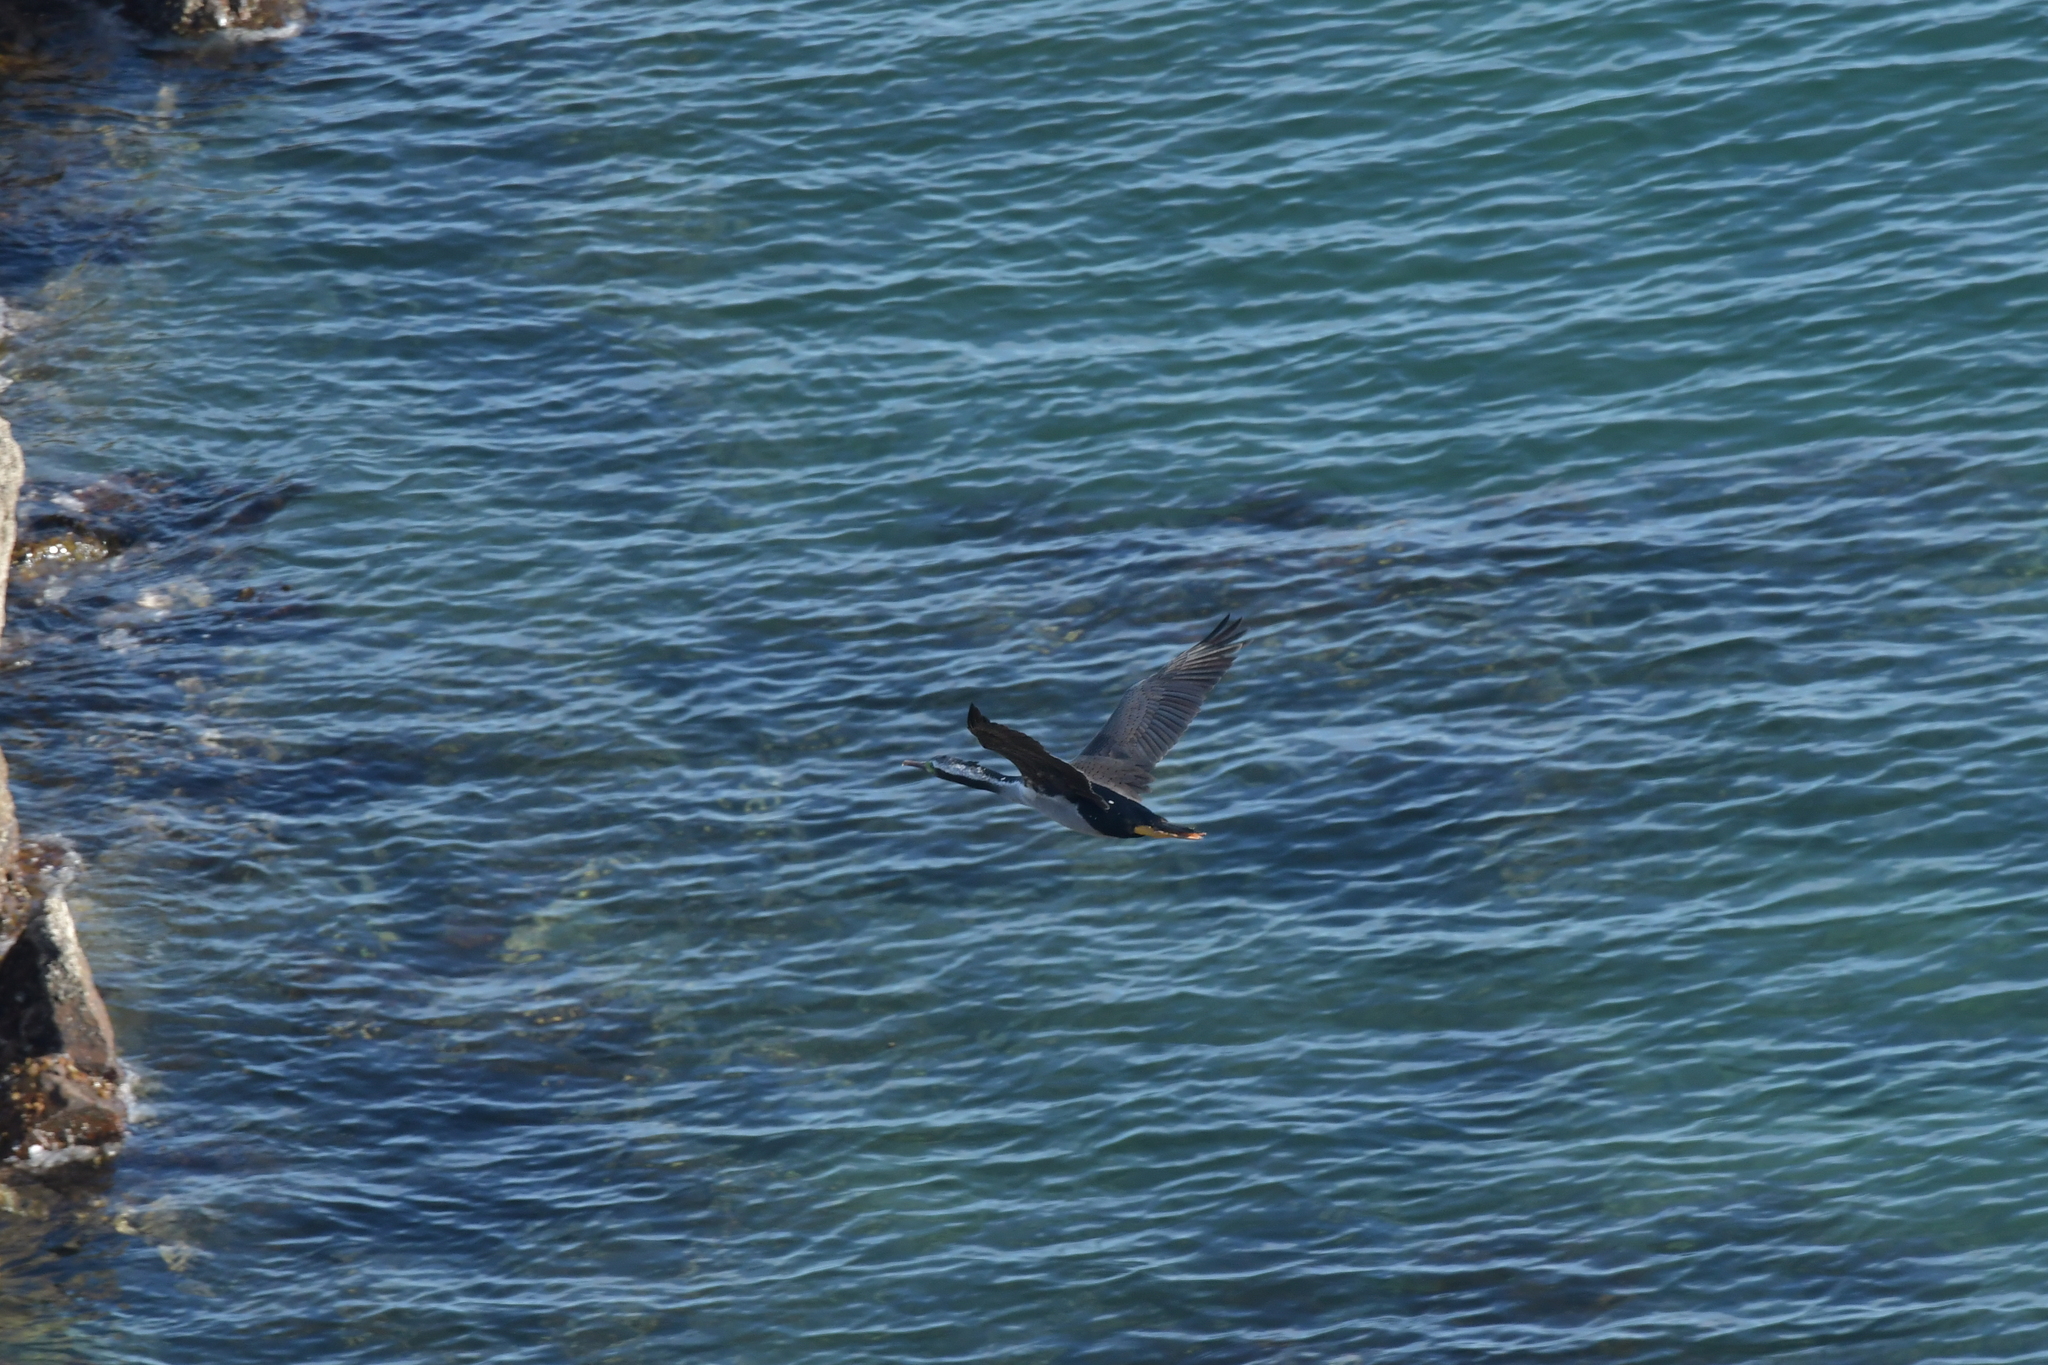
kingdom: Animalia
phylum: Chordata
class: Aves
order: Suliformes
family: Phalacrocoracidae
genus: Phalacrocorax
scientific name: Phalacrocorax punctatus
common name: Spotted shag
